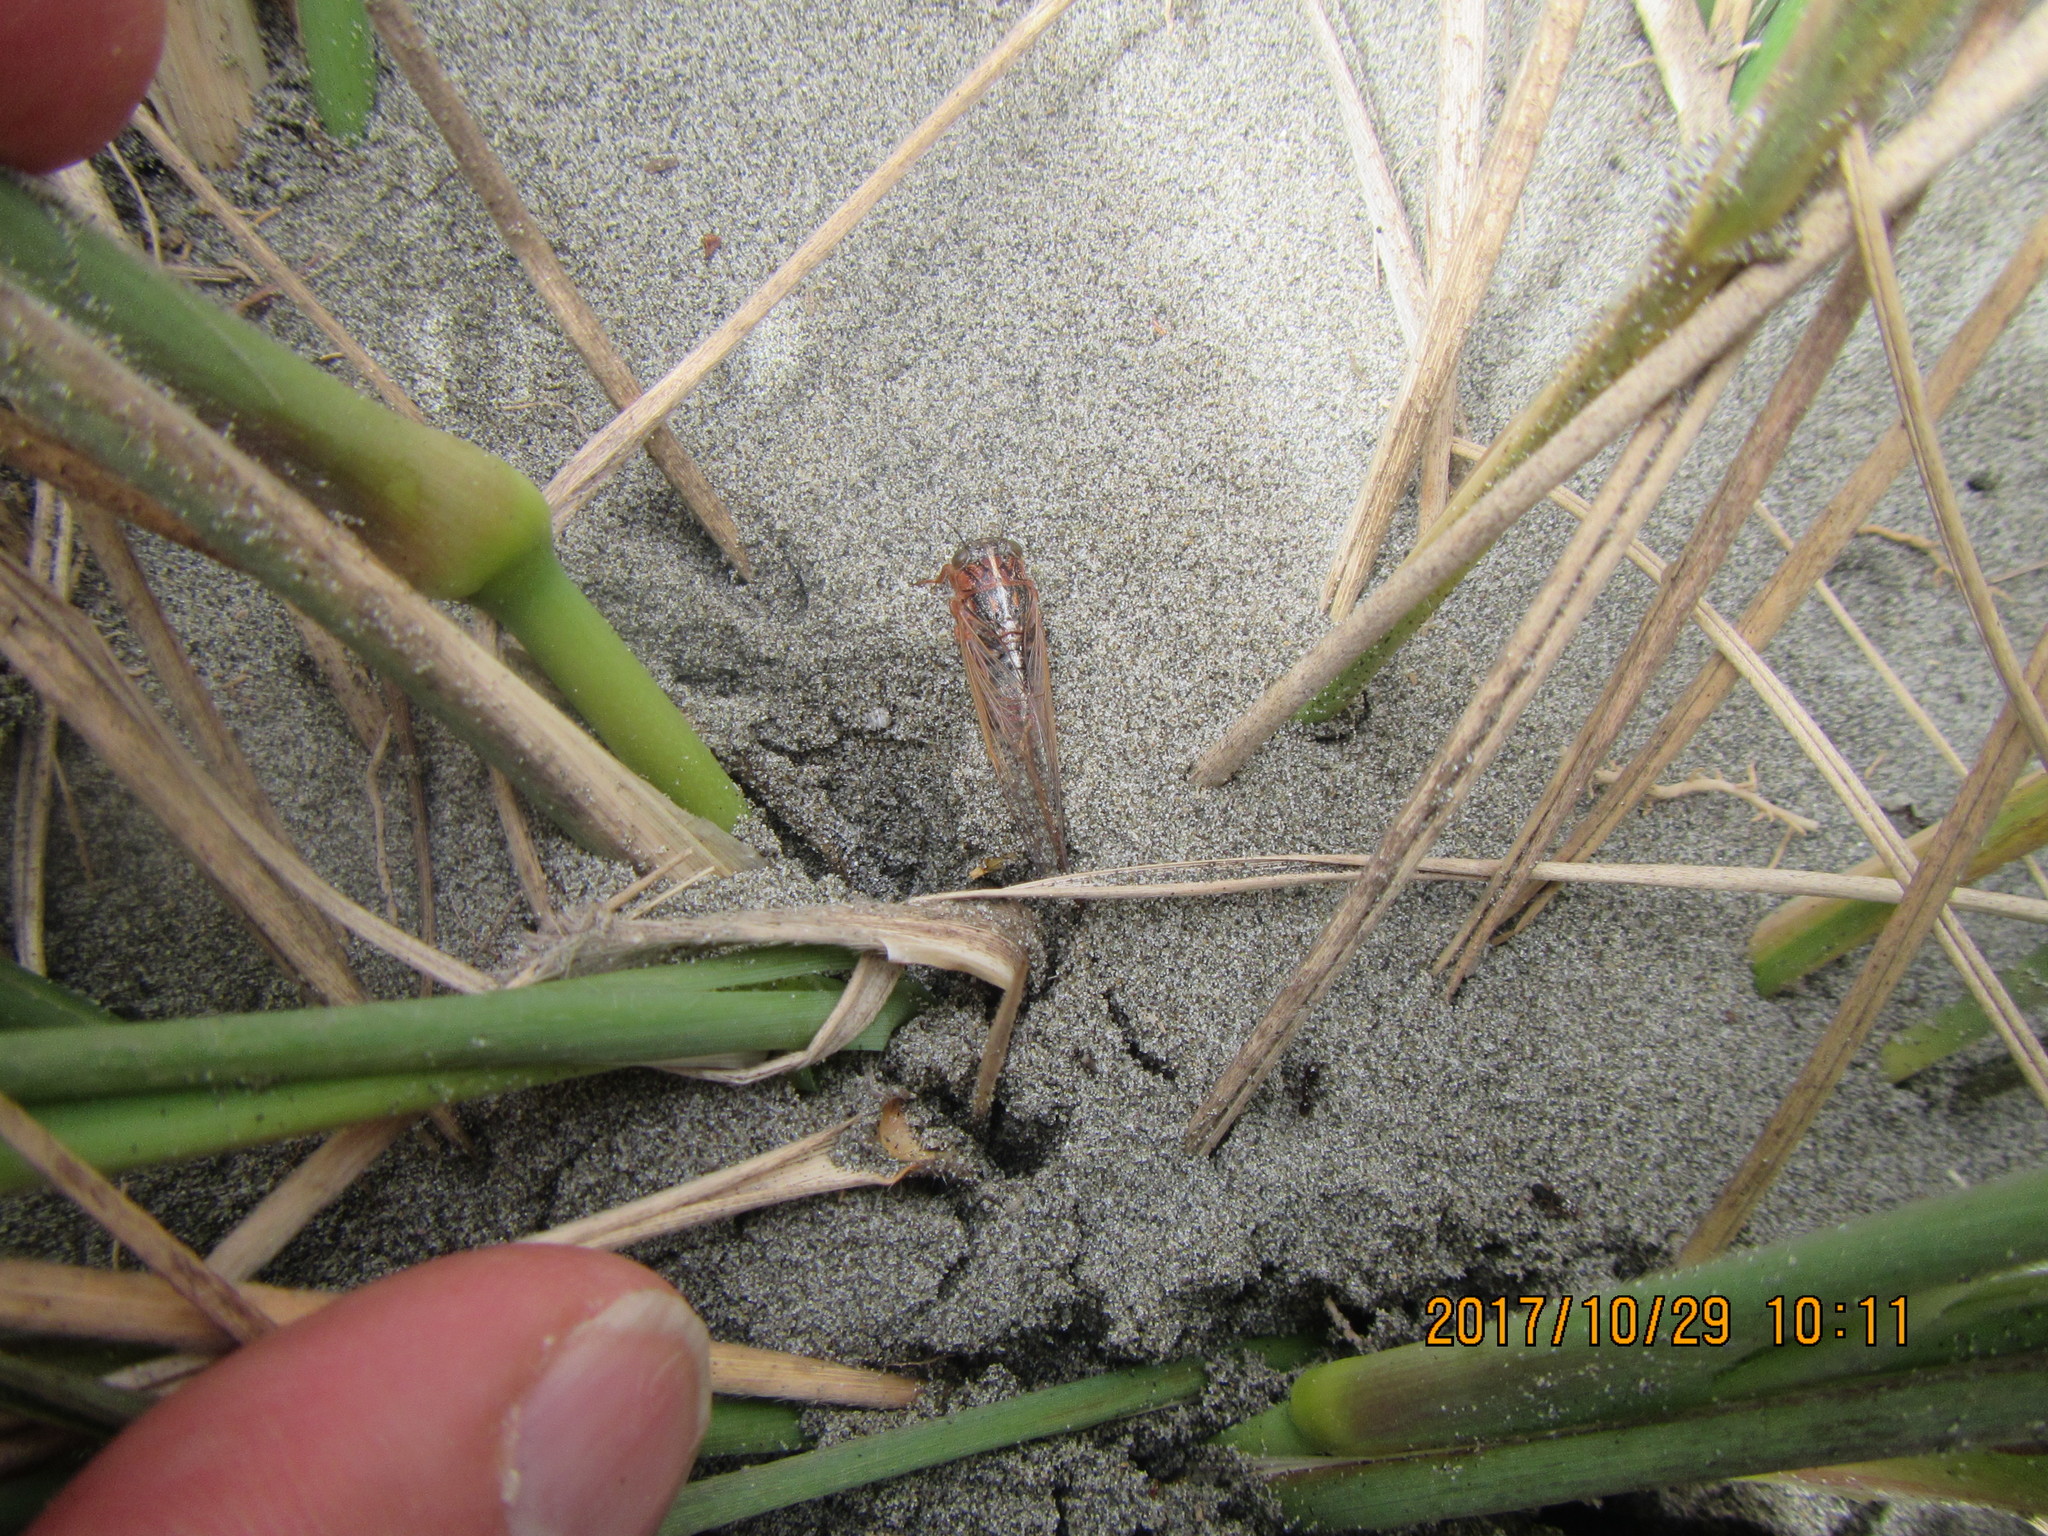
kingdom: Animalia
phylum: Arthropoda
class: Insecta
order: Hemiptera
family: Cicadidae
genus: Rhodopsalta
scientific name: Rhodopsalta leptomera
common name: Sand dune redtail cicada
